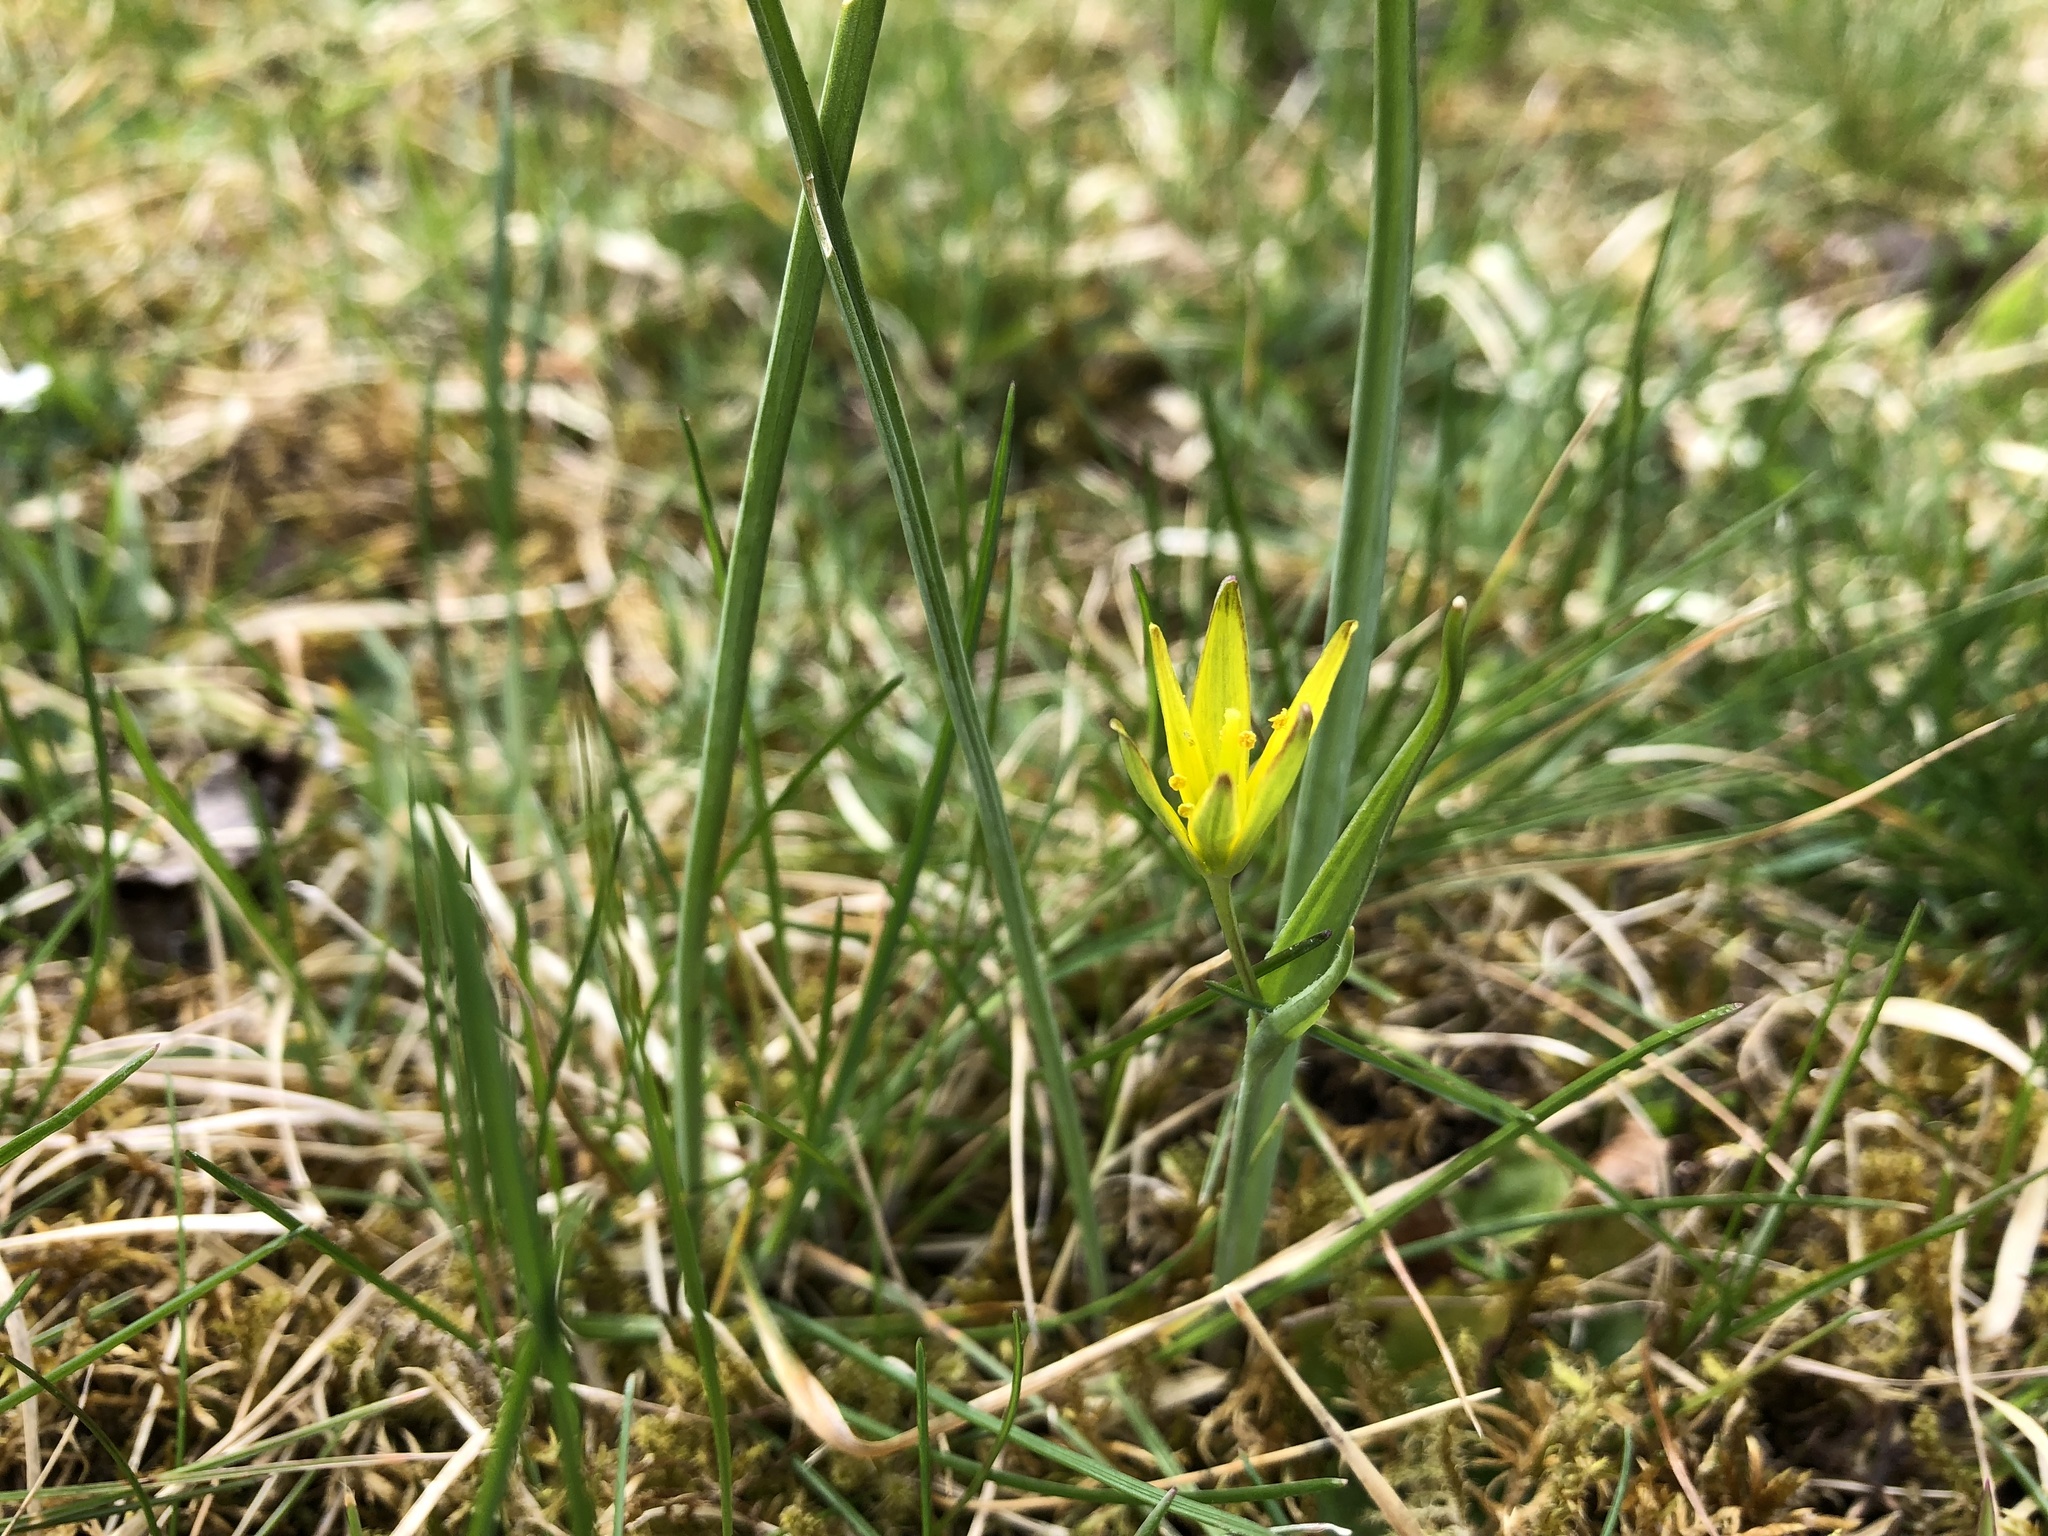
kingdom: Plantae
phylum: Tracheophyta
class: Liliopsida
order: Liliales
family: Liliaceae
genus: Gagea
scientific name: Gagea pratensis
